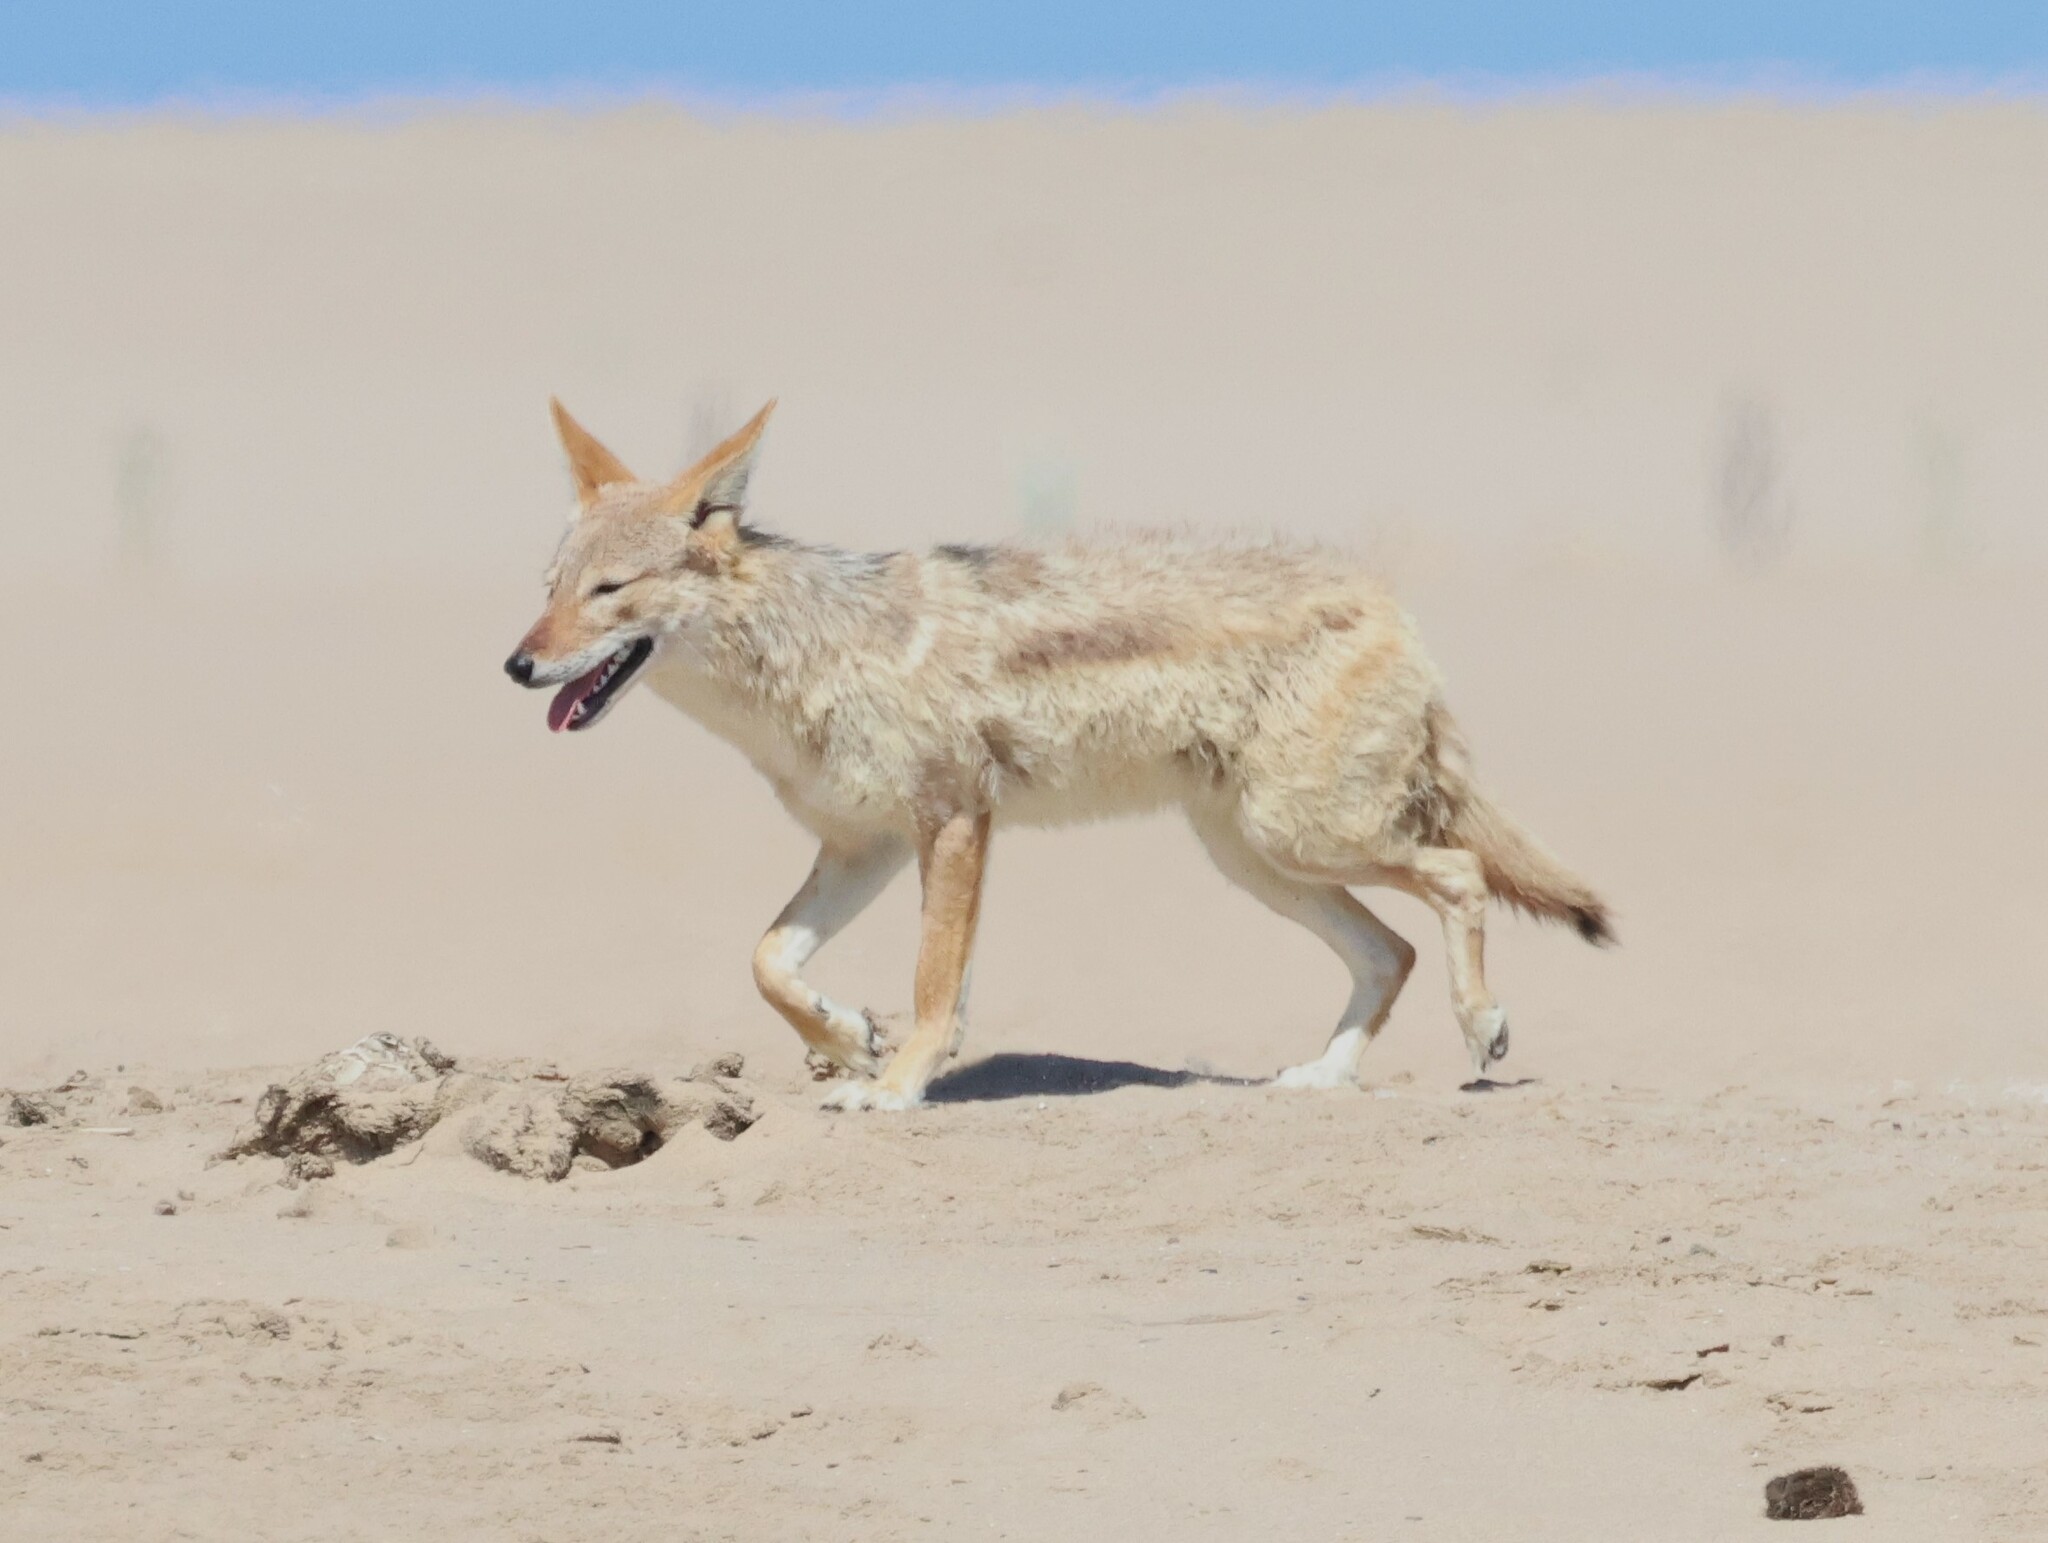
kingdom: Animalia
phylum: Chordata
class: Mammalia
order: Carnivora
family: Canidae
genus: Lupulella
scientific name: Lupulella
